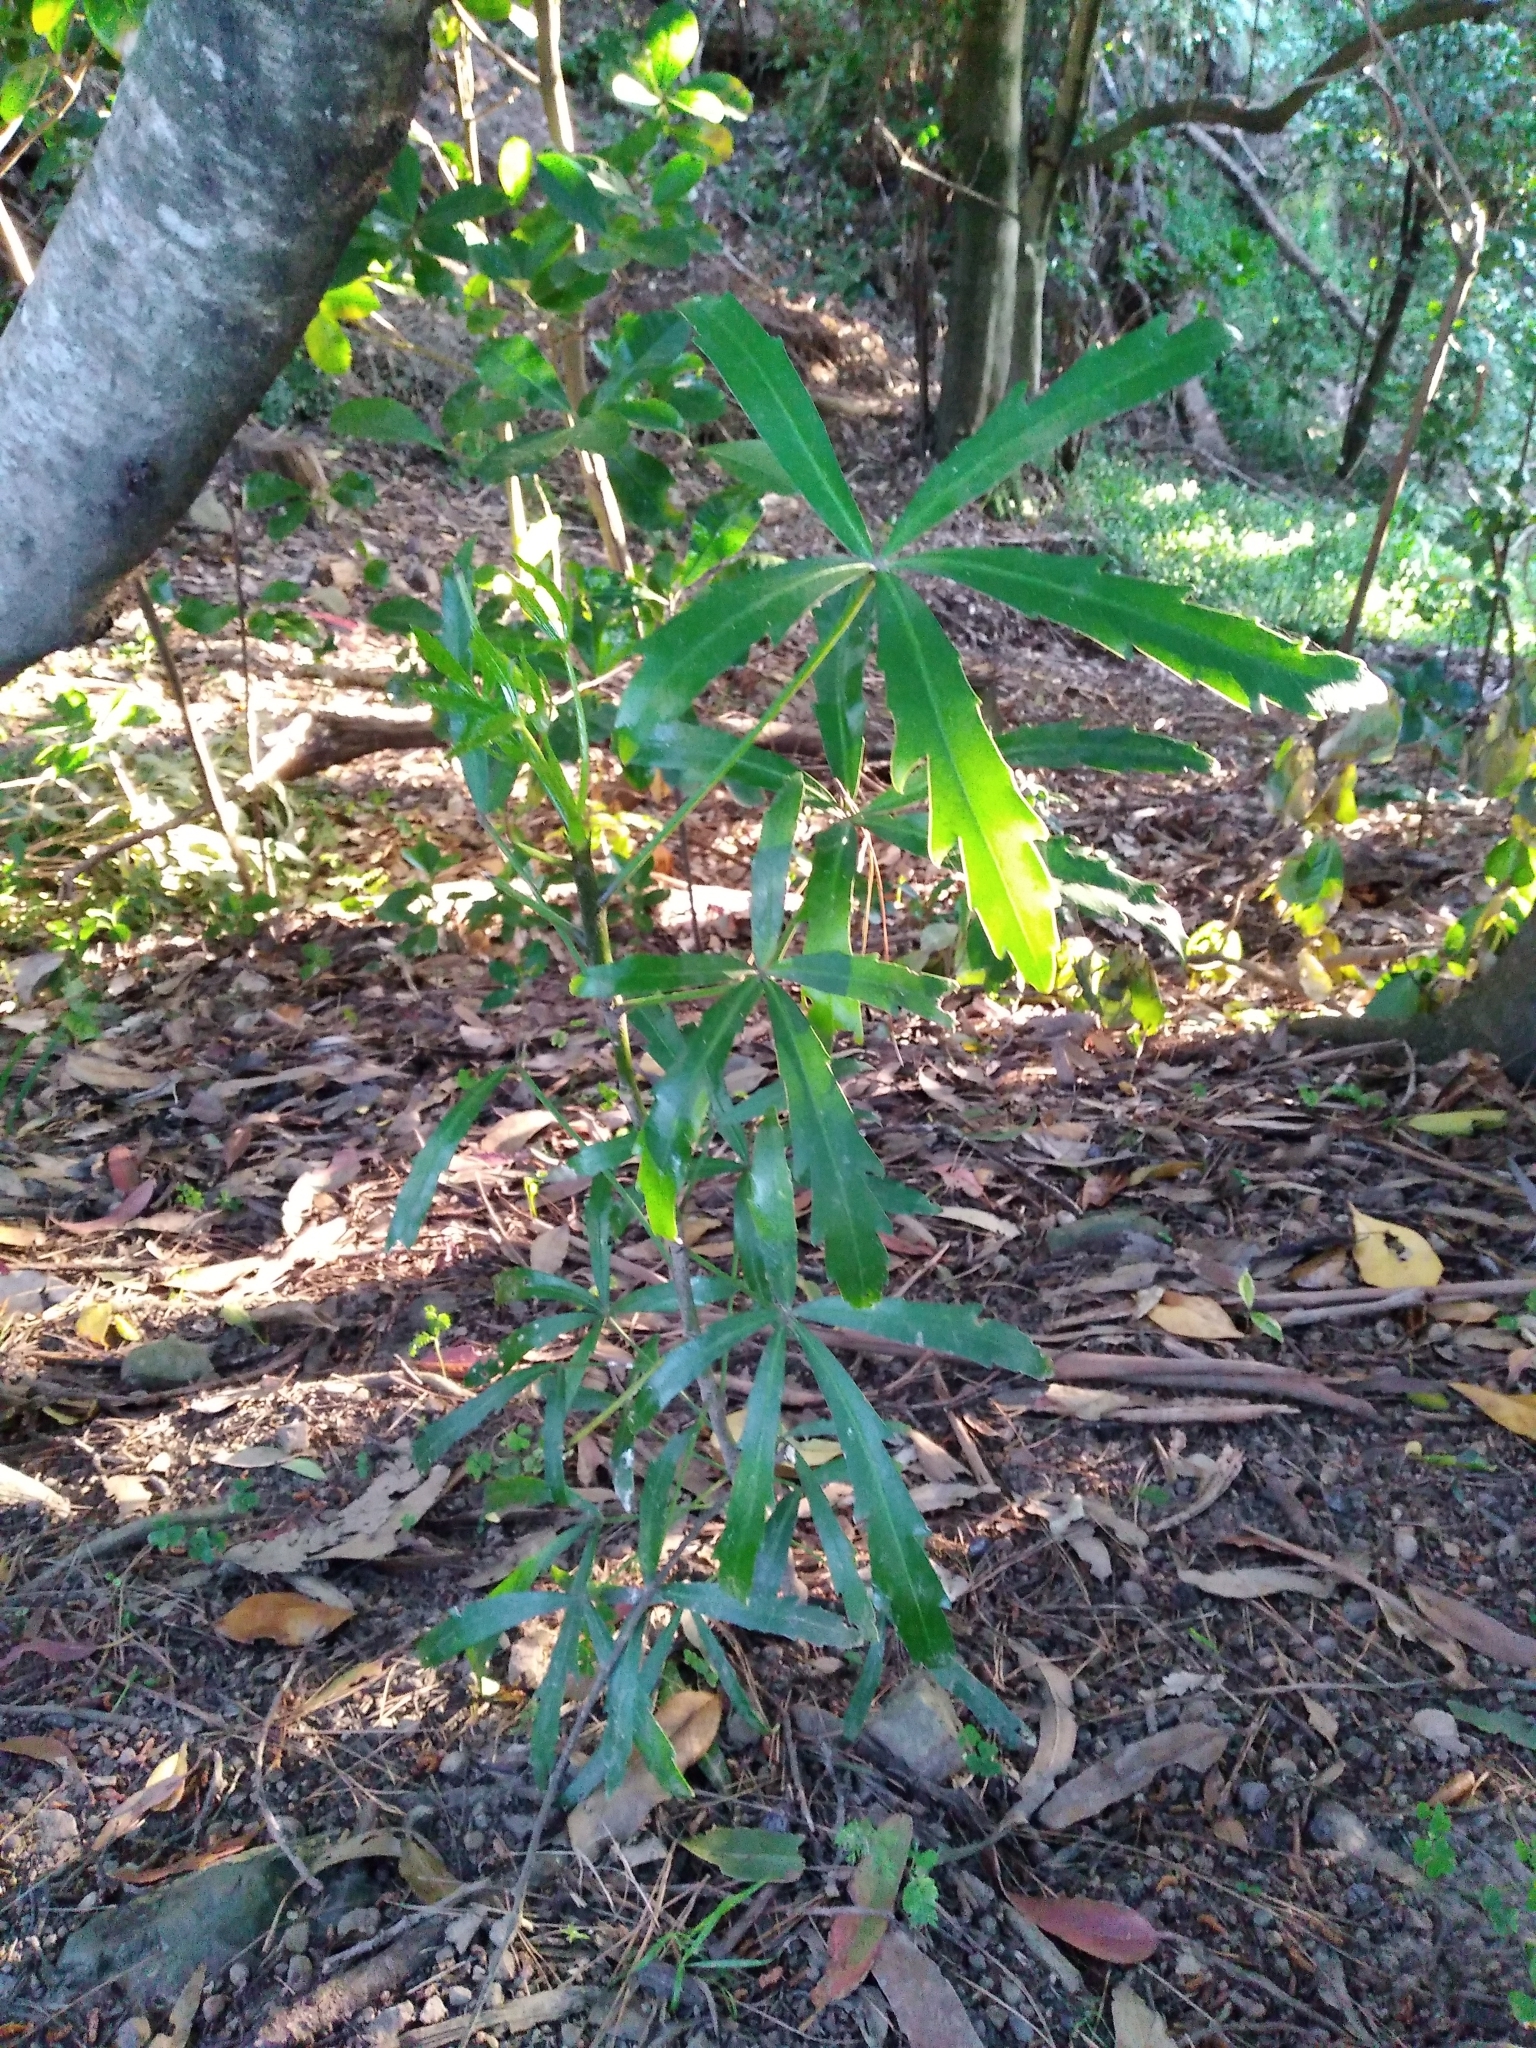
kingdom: Plantae
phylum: Tracheophyta
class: Magnoliopsida
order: Apiales
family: Araliaceae
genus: Pseudopanax
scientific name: Pseudopanax
